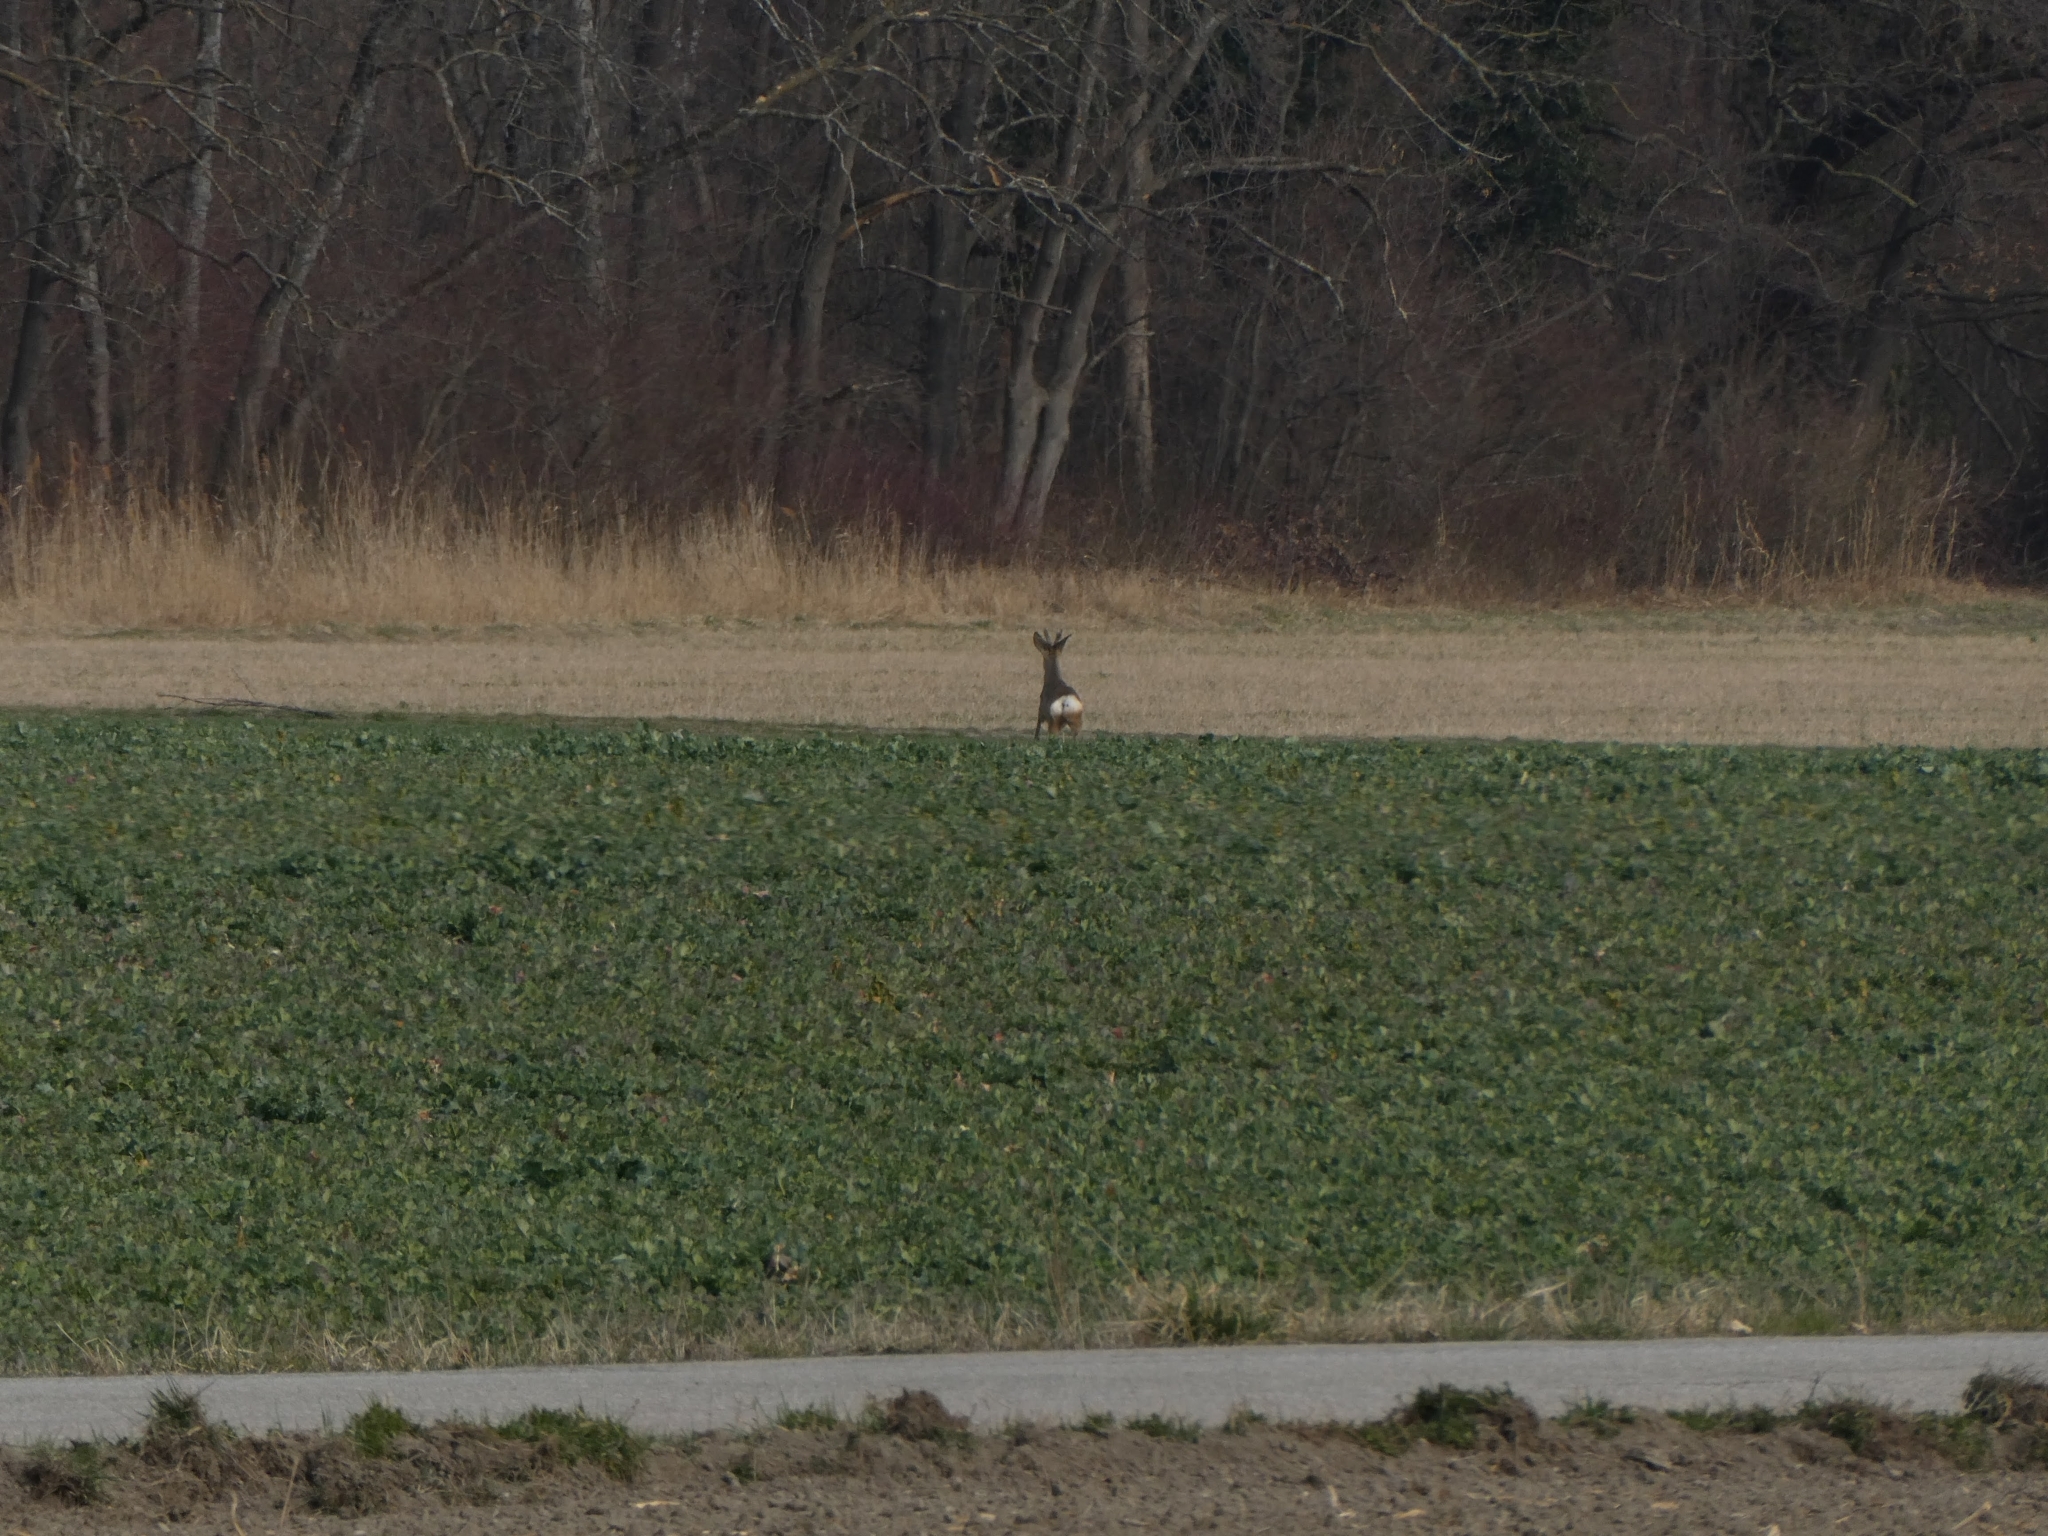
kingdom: Animalia
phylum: Chordata
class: Mammalia
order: Artiodactyla
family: Cervidae
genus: Capreolus
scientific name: Capreolus capreolus
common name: Western roe deer
